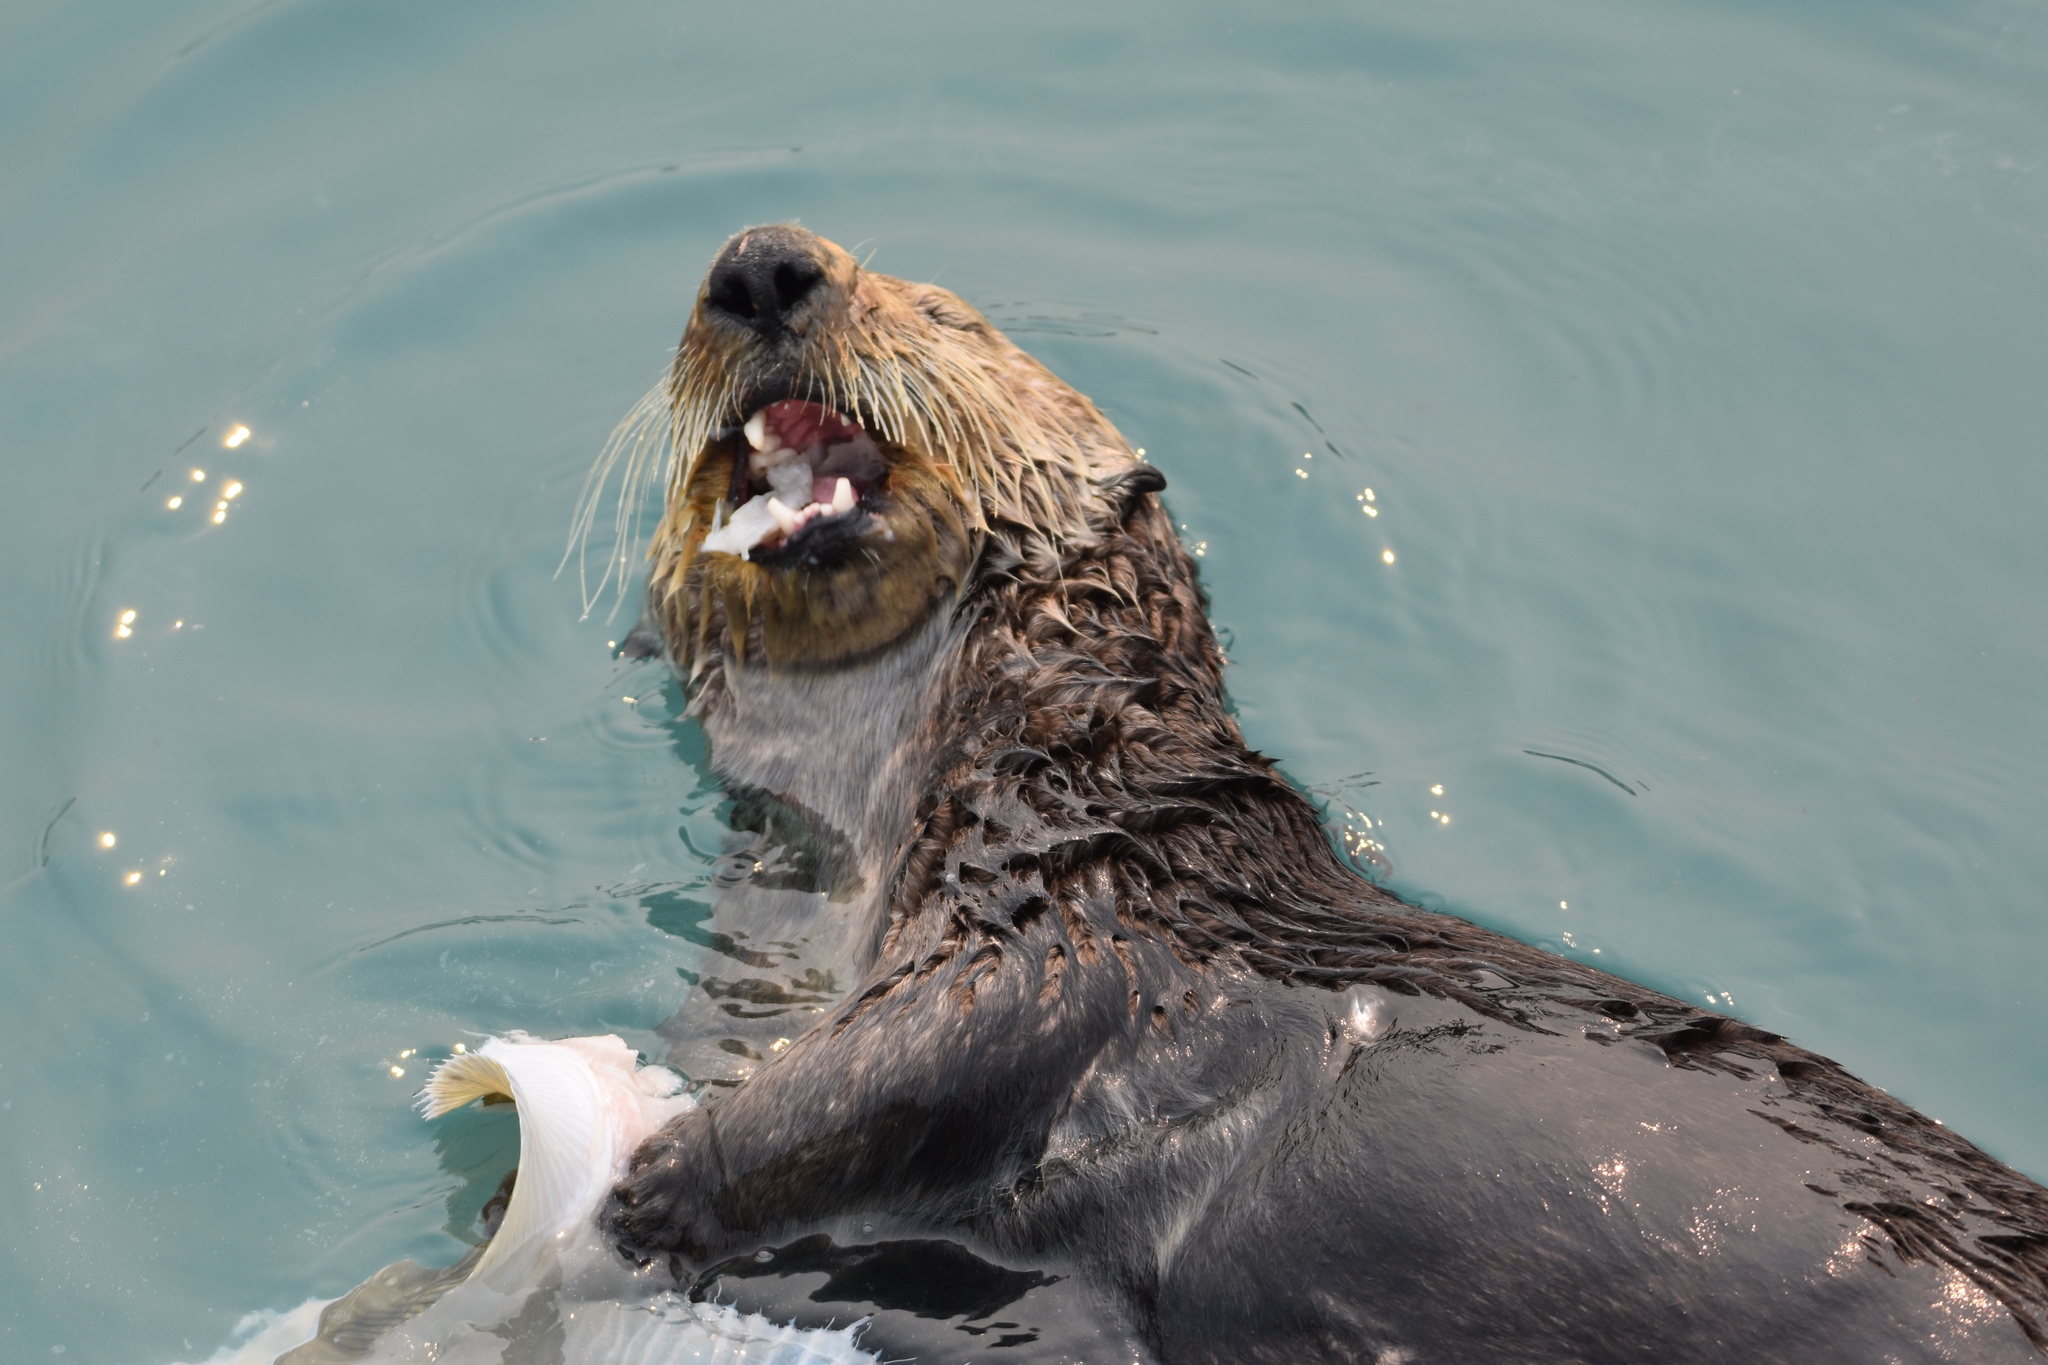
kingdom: Animalia
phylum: Chordata
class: Mammalia
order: Carnivora
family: Mustelidae
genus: Enhydra
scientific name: Enhydra lutris
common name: Sea otter
